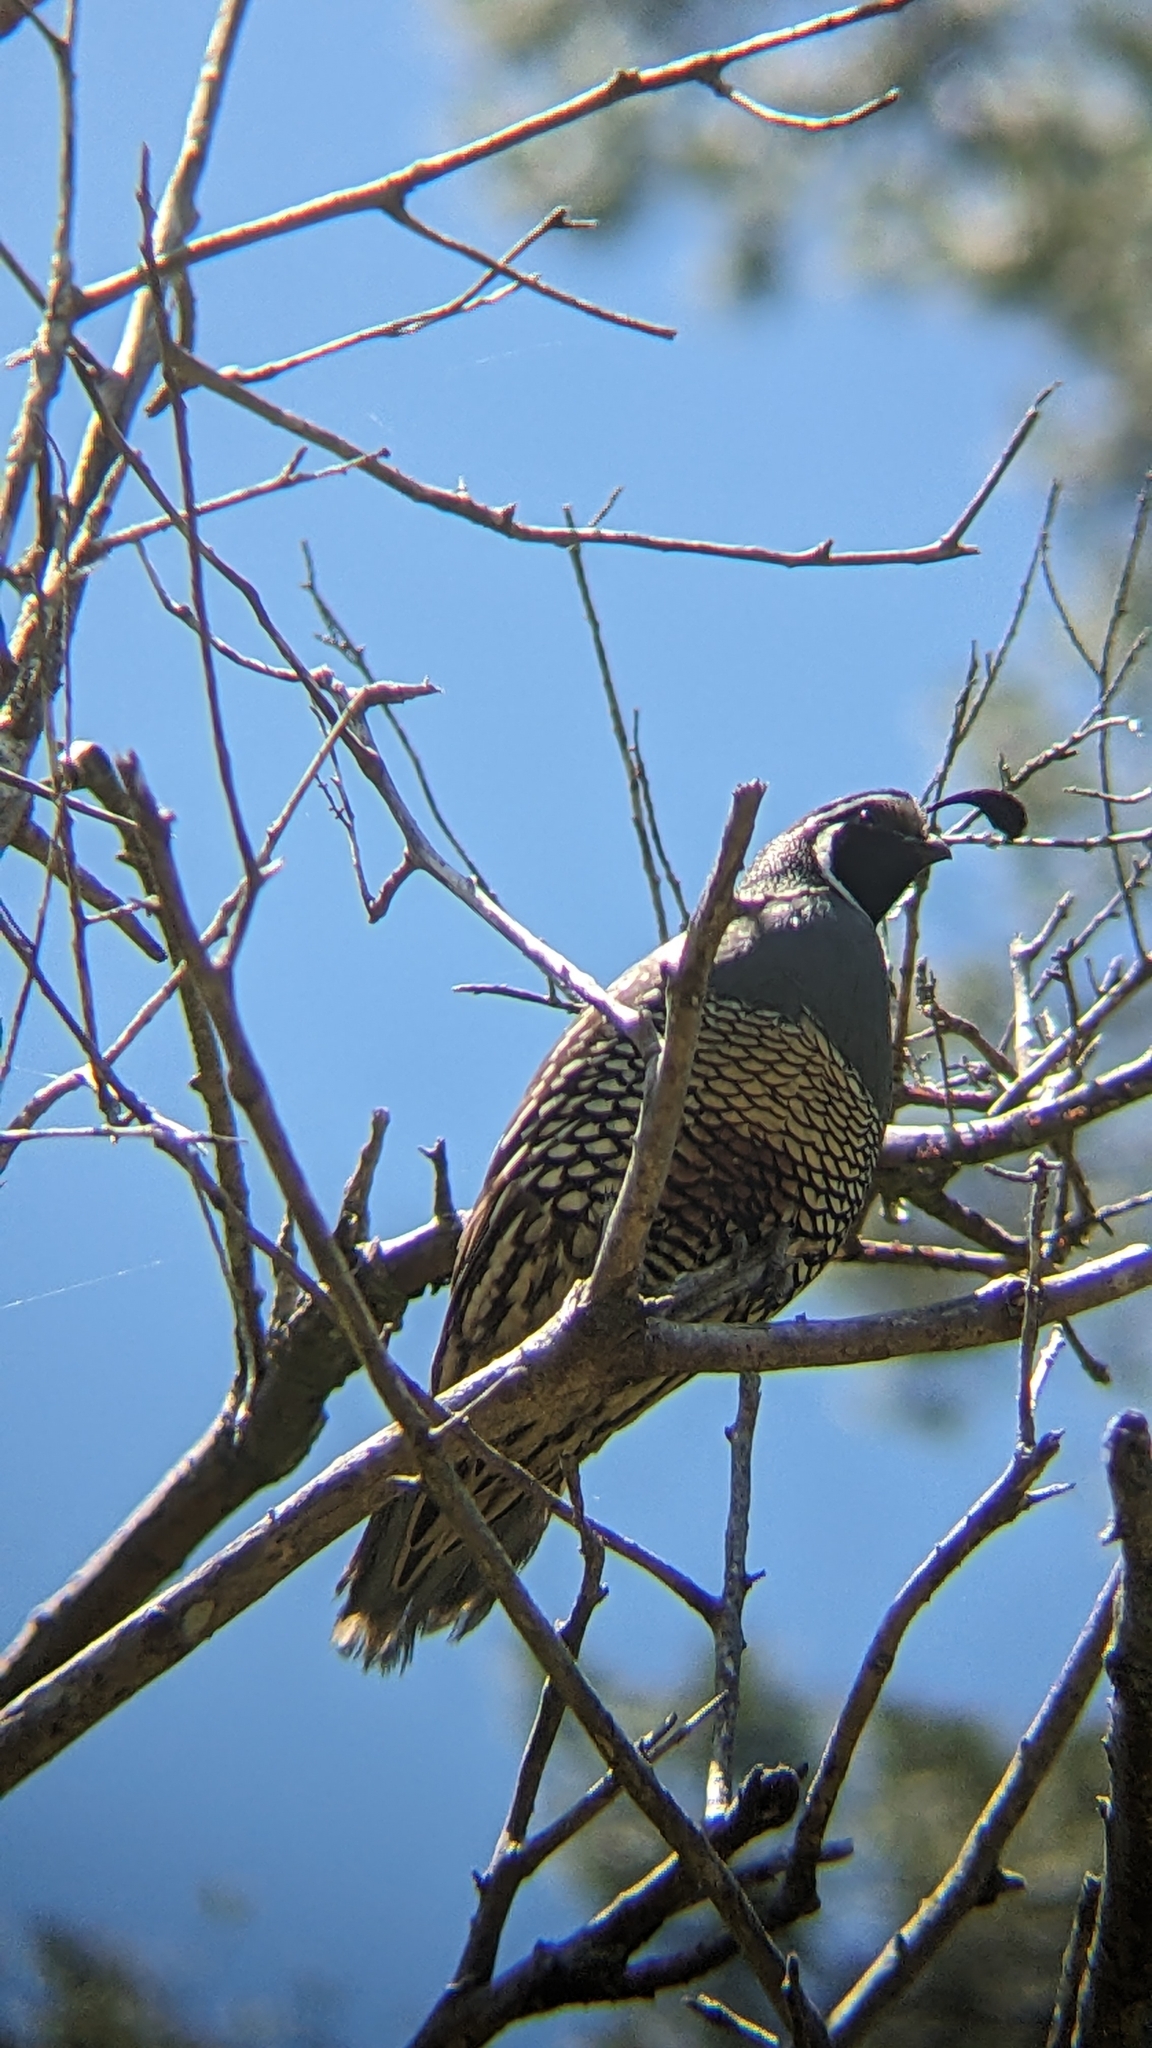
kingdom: Animalia
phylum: Chordata
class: Aves
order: Galliformes
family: Odontophoridae
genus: Callipepla
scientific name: Callipepla californica
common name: California quail
